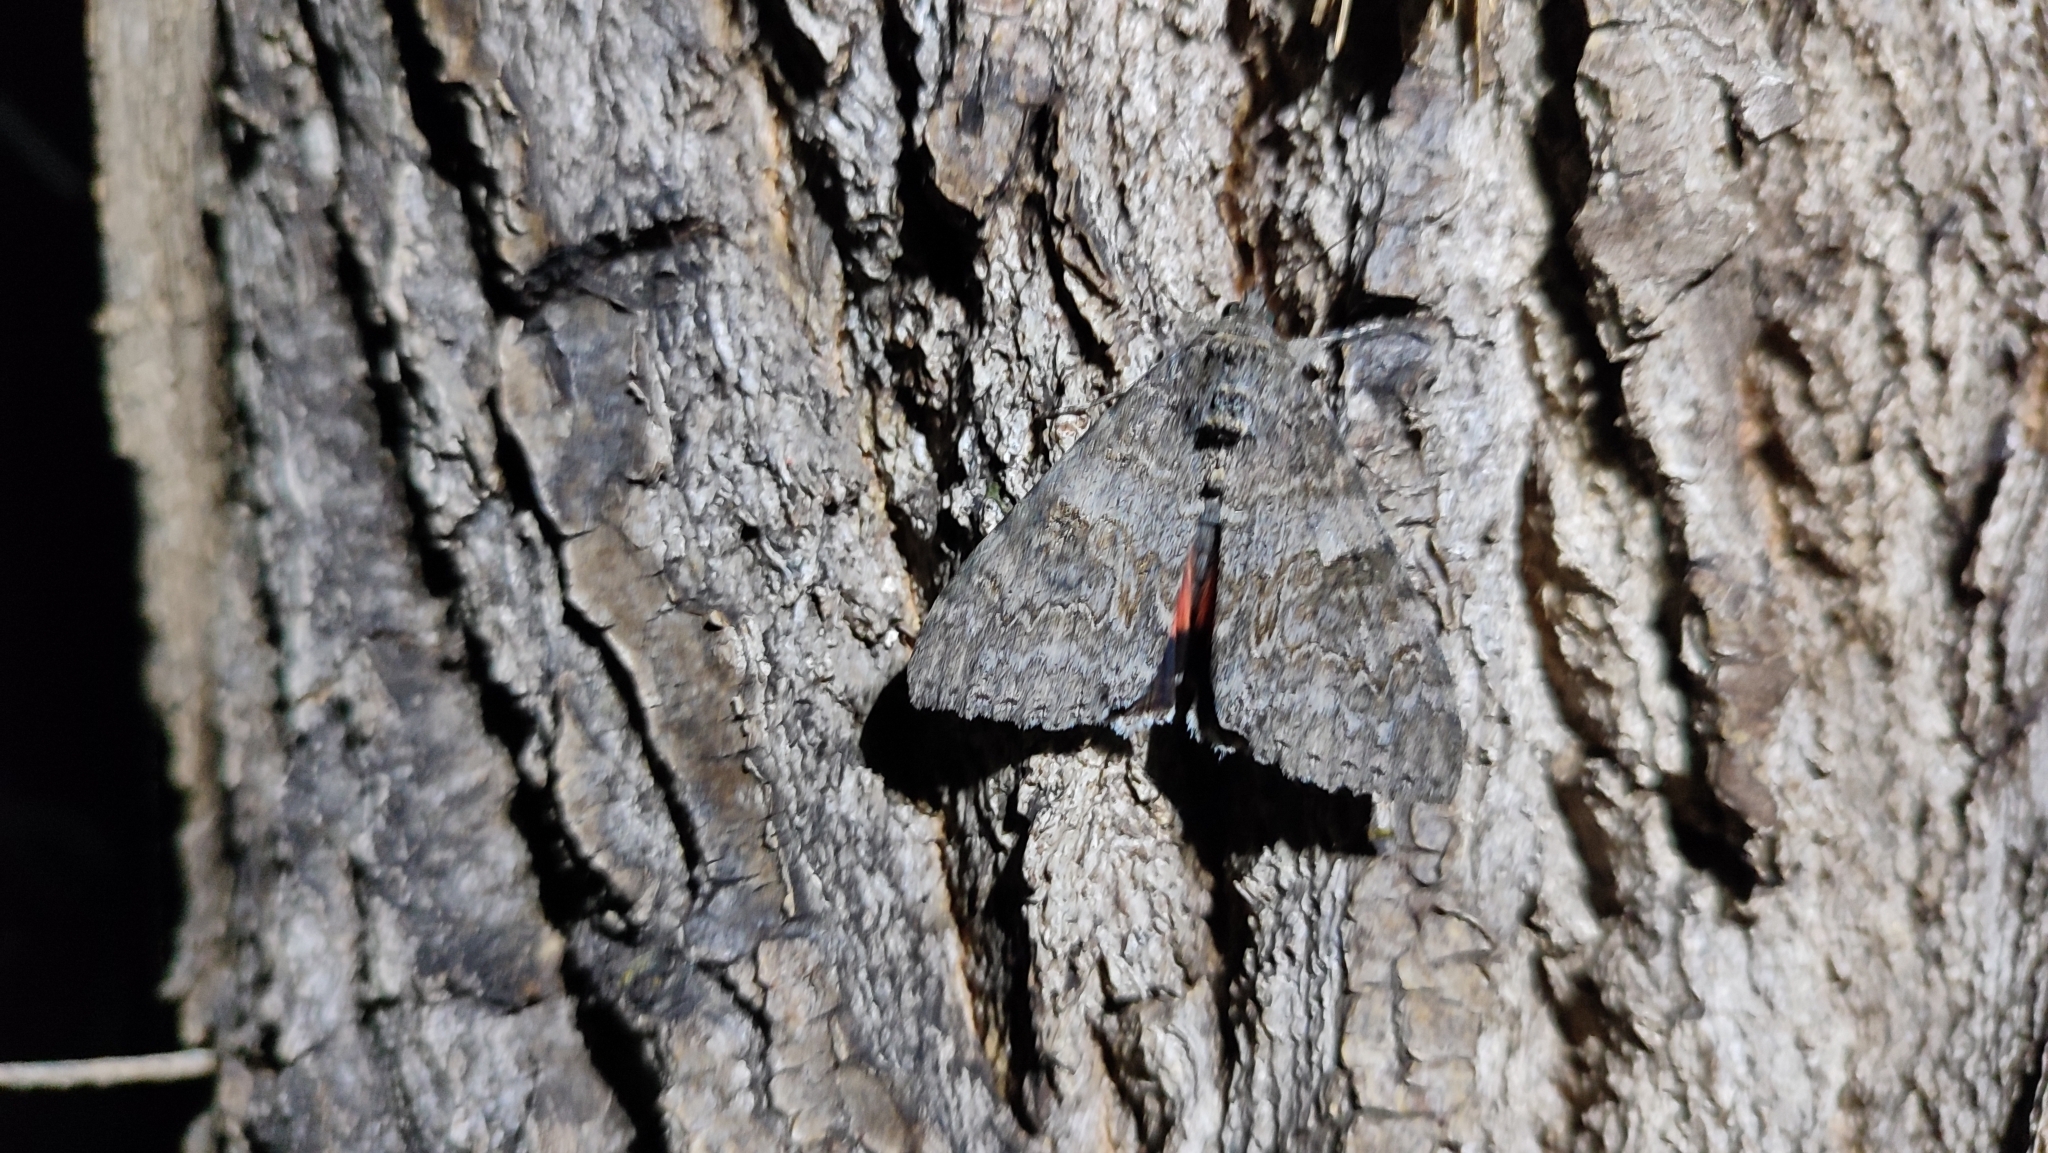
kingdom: Animalia
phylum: Arthropoda
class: Insecta
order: Lepidoptera
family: Erebidae
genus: Catocala
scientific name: Catocala nupta
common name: Red underwing
